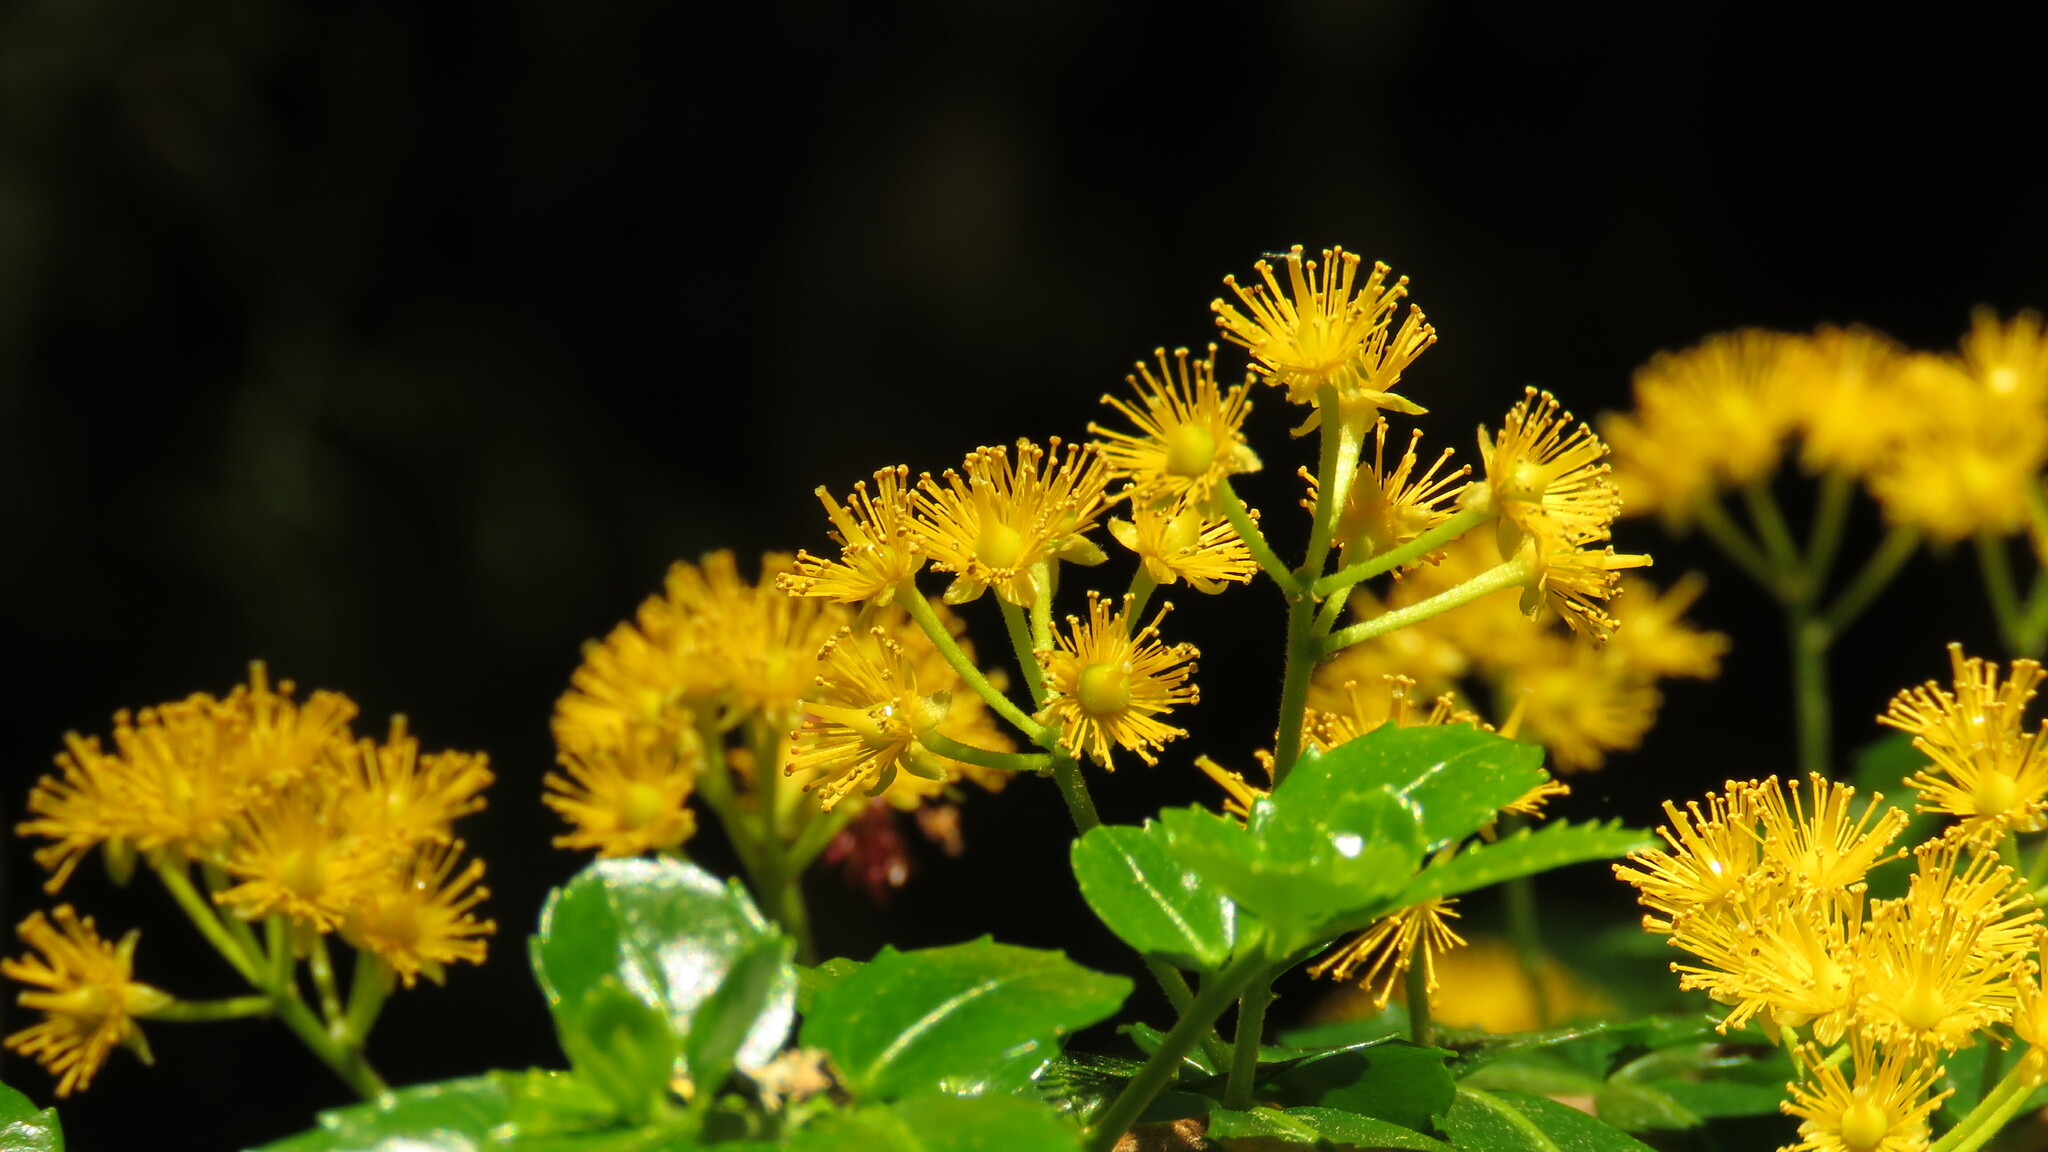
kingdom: Plantae
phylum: Tracheophyta
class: Magnoliopsida
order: Malpighiales
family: Salicaceae
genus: Azara
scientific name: Azara lanceolata
